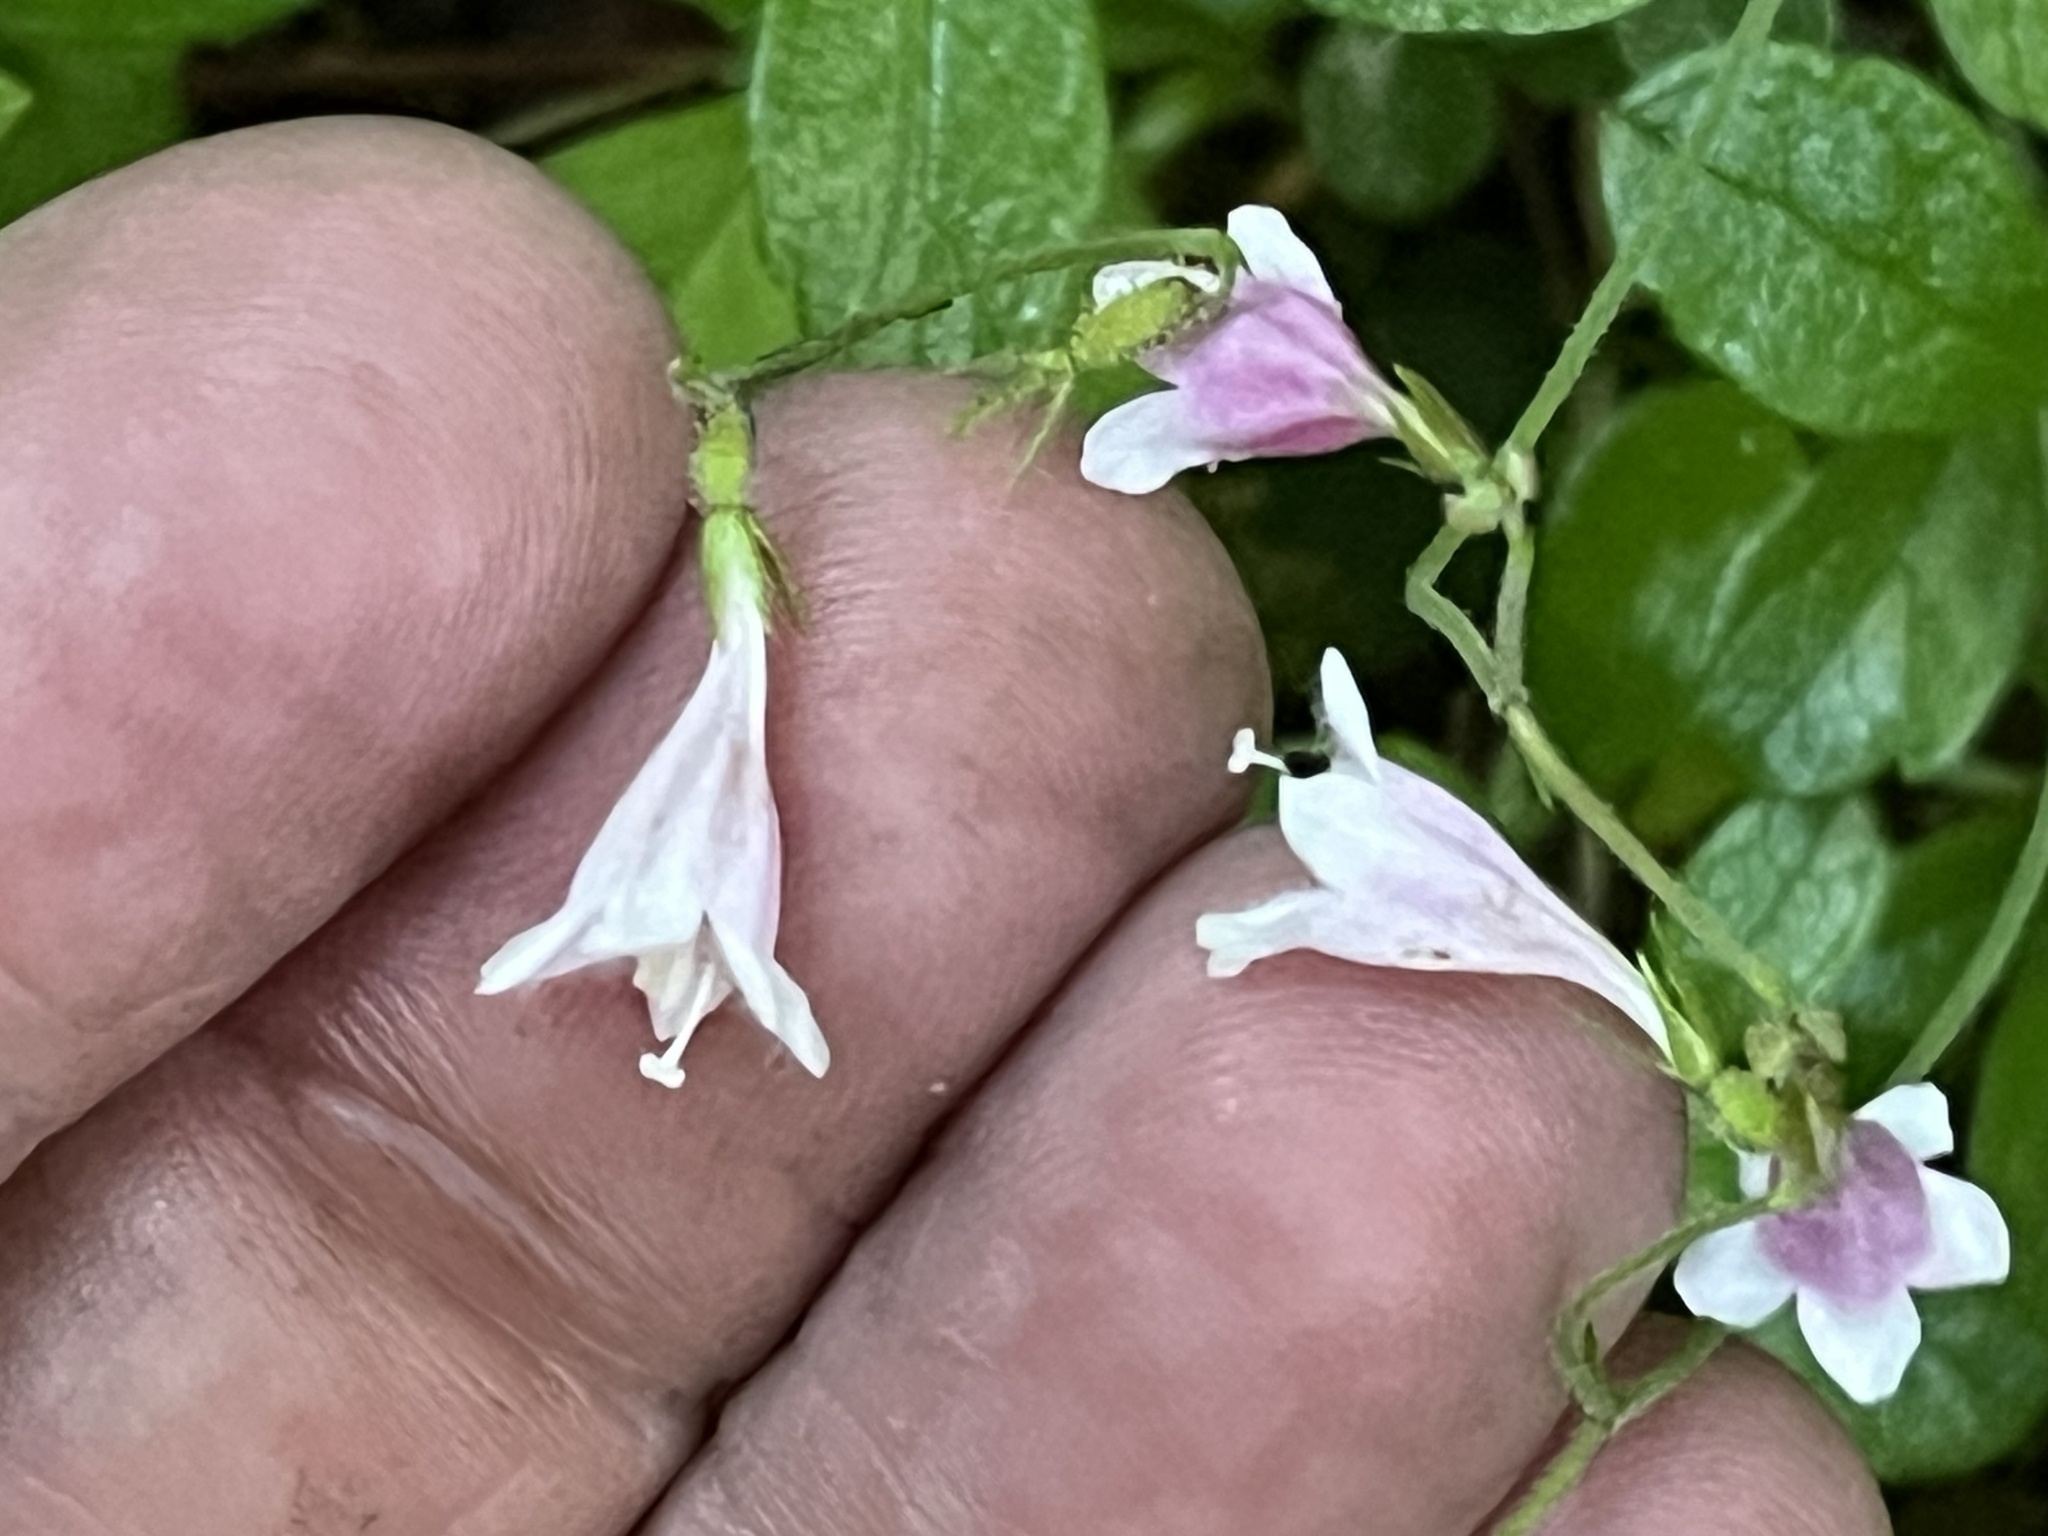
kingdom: Plantae
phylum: Tracheophyta
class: Magnoliopsida
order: Dipsacales
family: Caprifoliaceae
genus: Linnaea
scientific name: Linnaea borealis
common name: Twinflower
